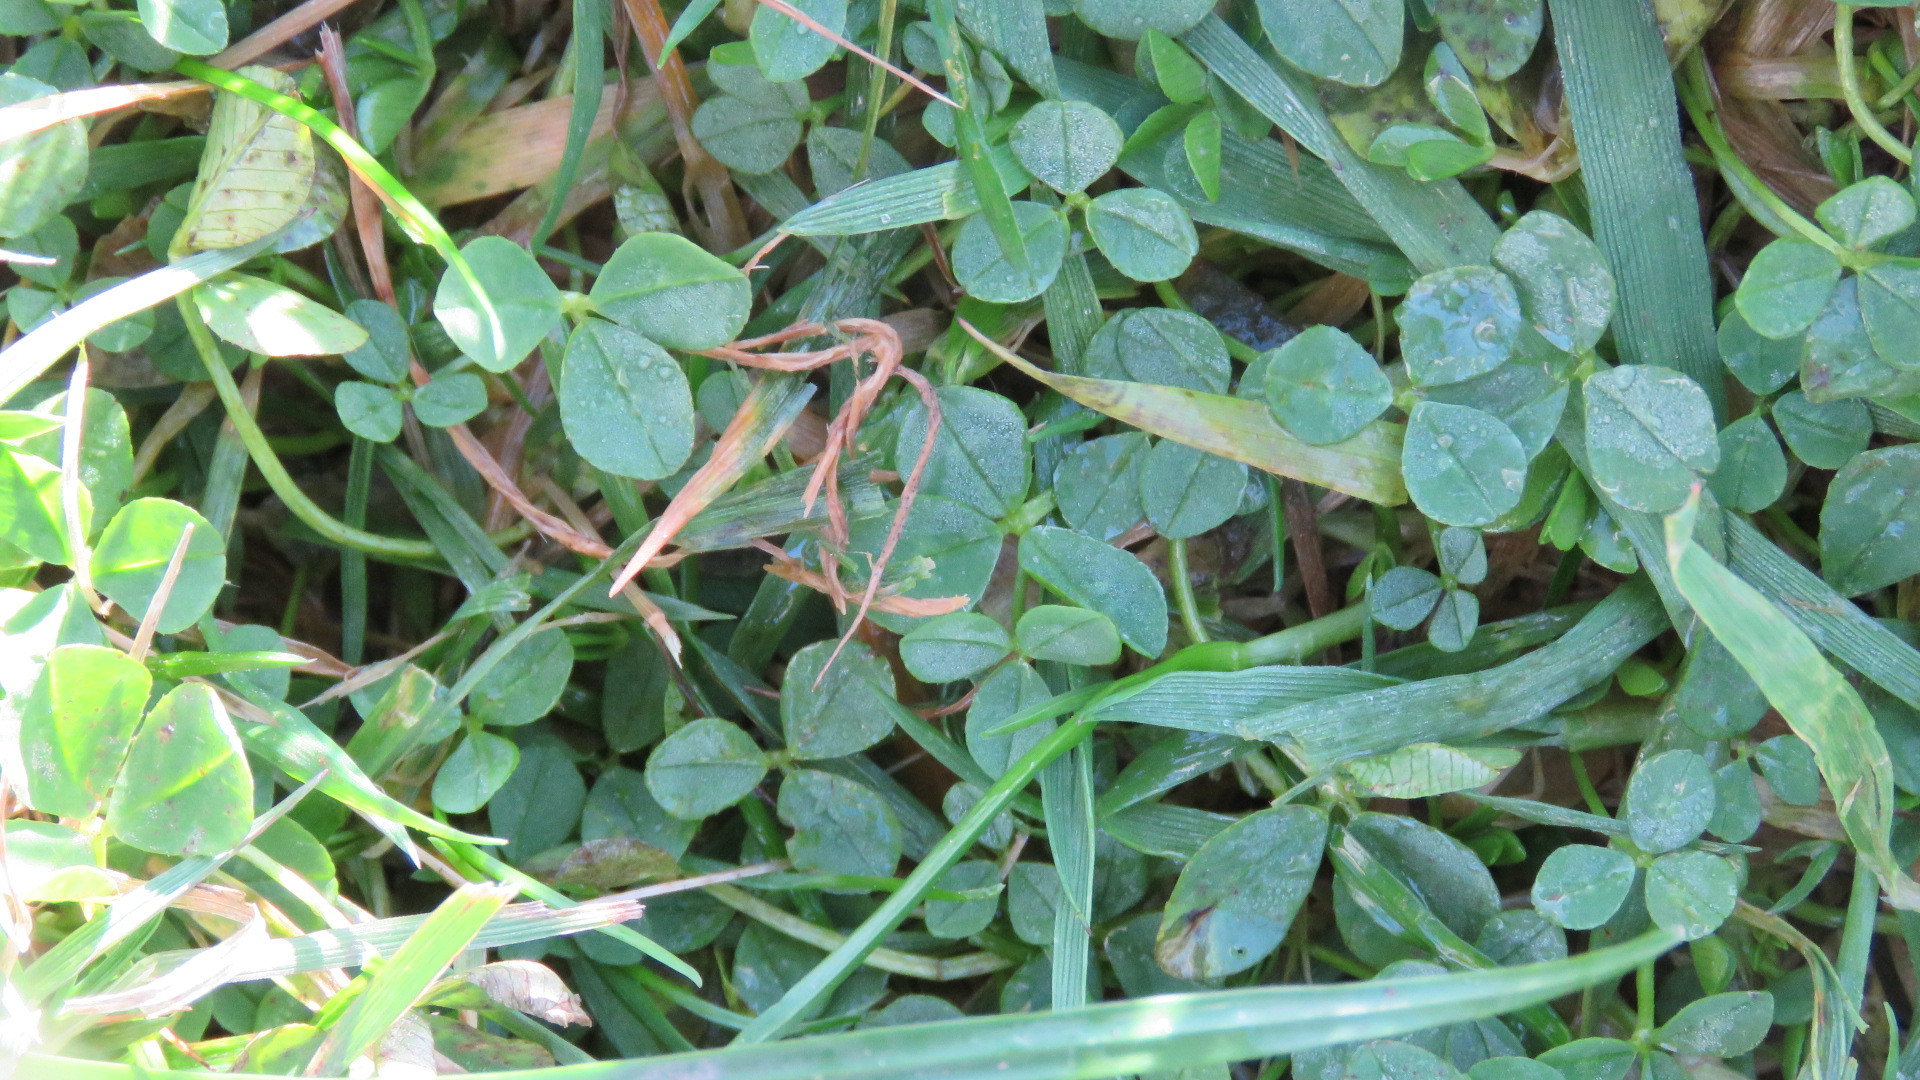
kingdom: Plantae
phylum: Tracheophyta
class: Magnoliopsida
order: Fabales
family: Fabaceae
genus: Trifolium
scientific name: Trifolium repens
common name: White clover
